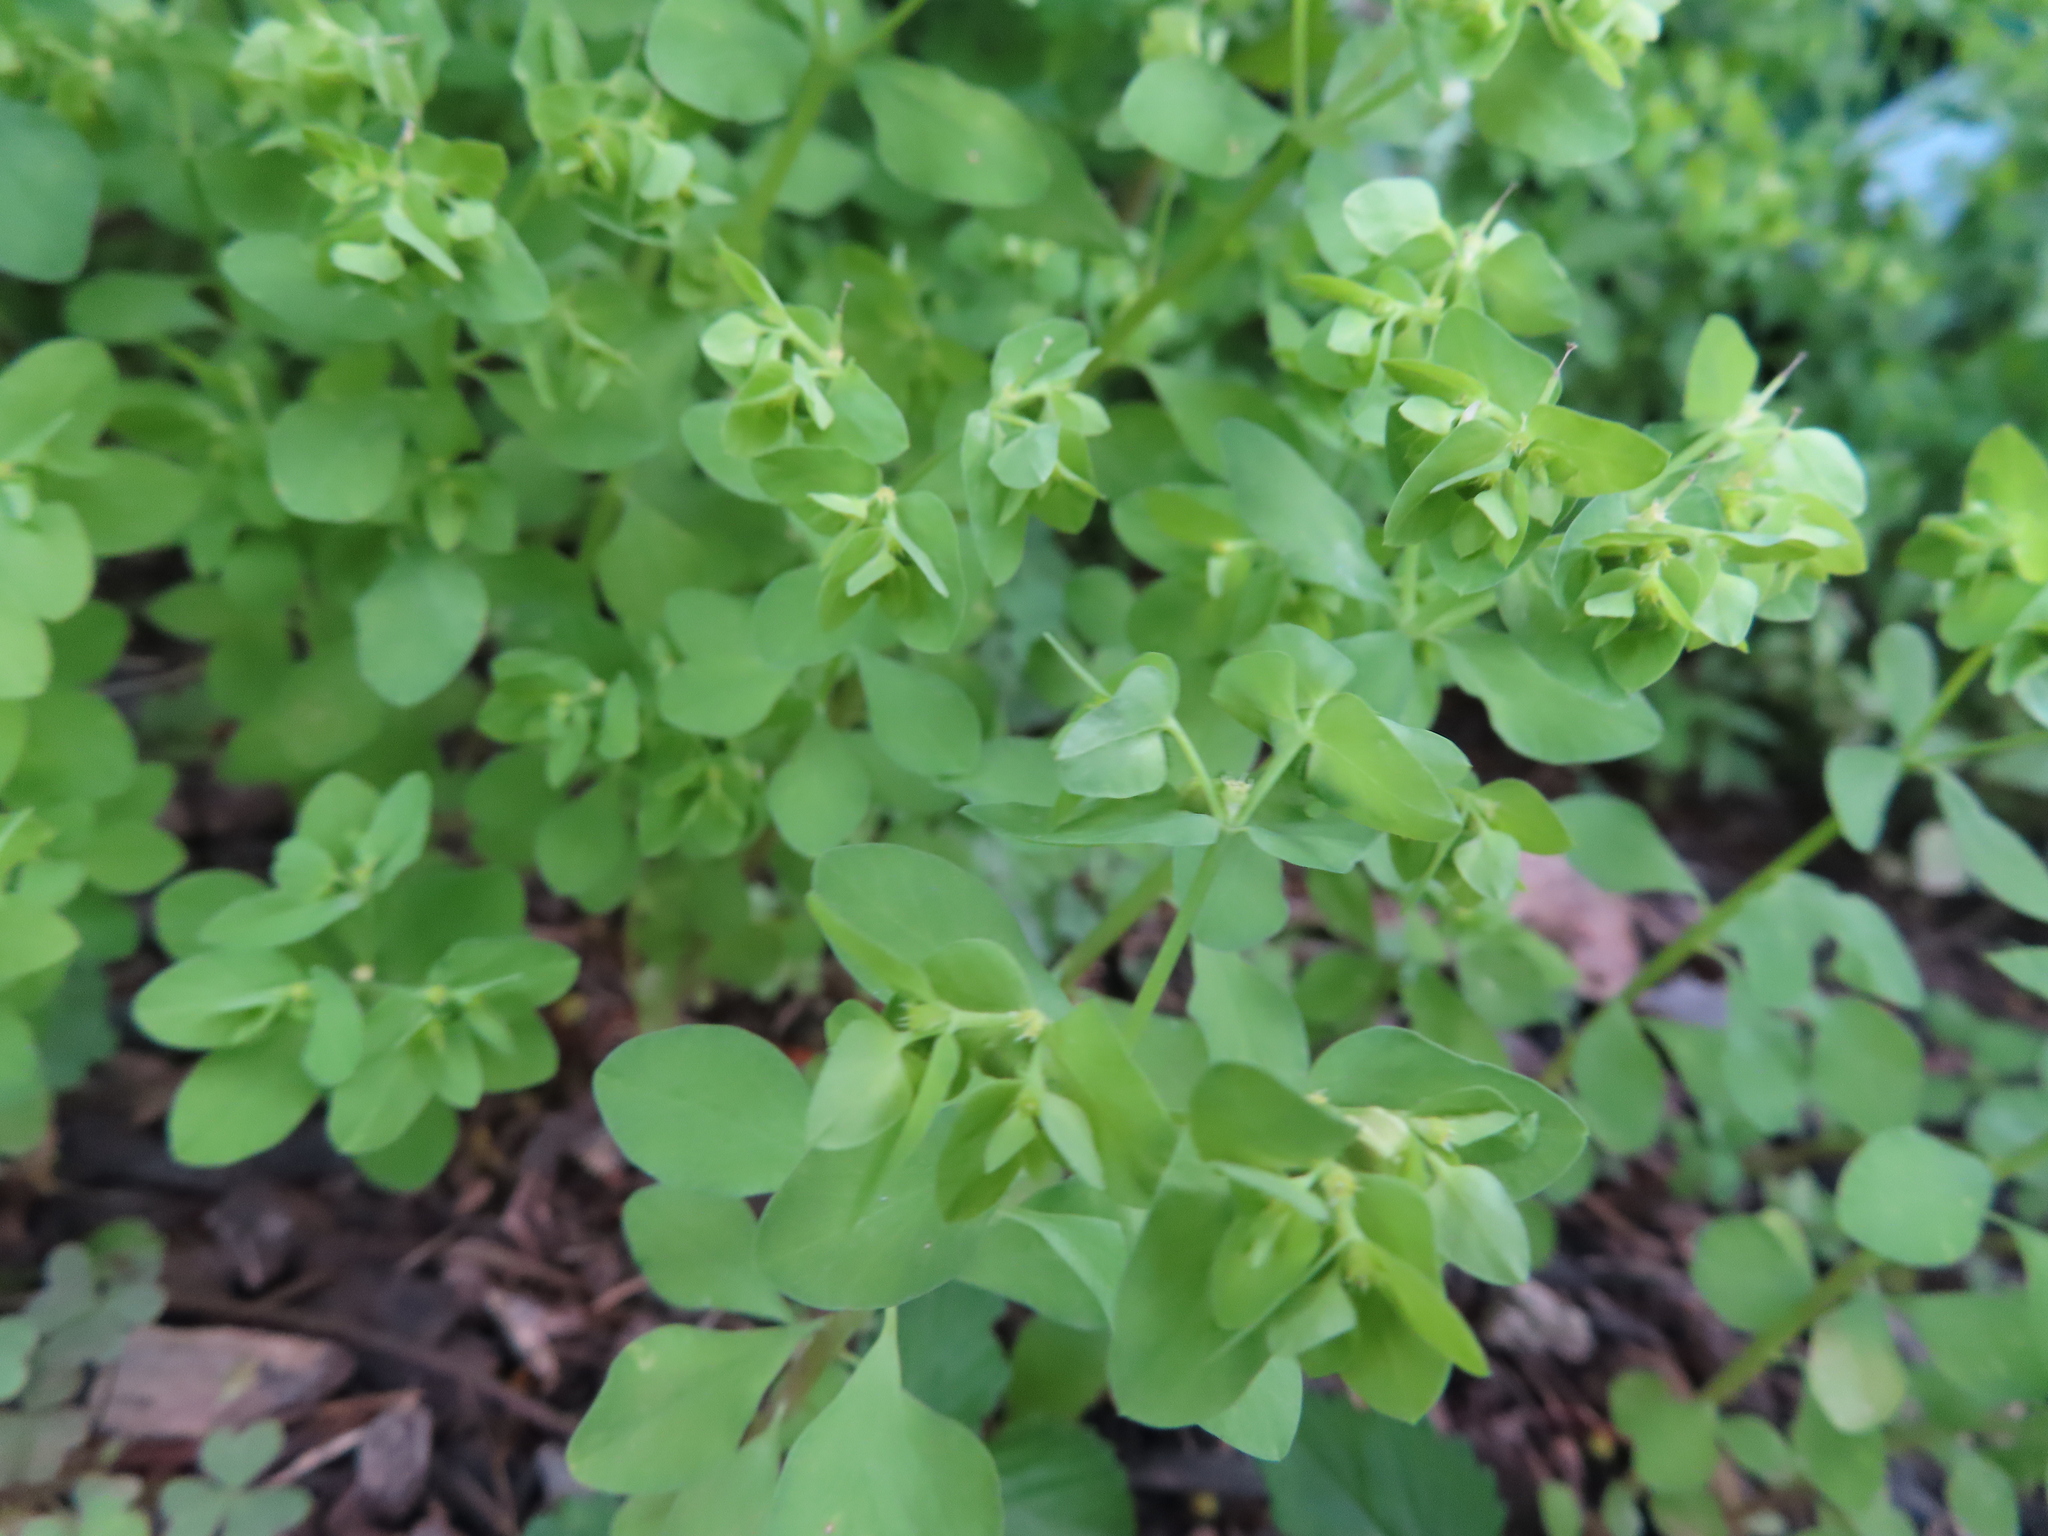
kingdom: Plantae
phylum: Tracheophyta
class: Magnoliopsida
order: Malpighiales
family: Euphorbiaceae
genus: Euphorbia
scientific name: Euphorbia peplus
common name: Petty spurge
